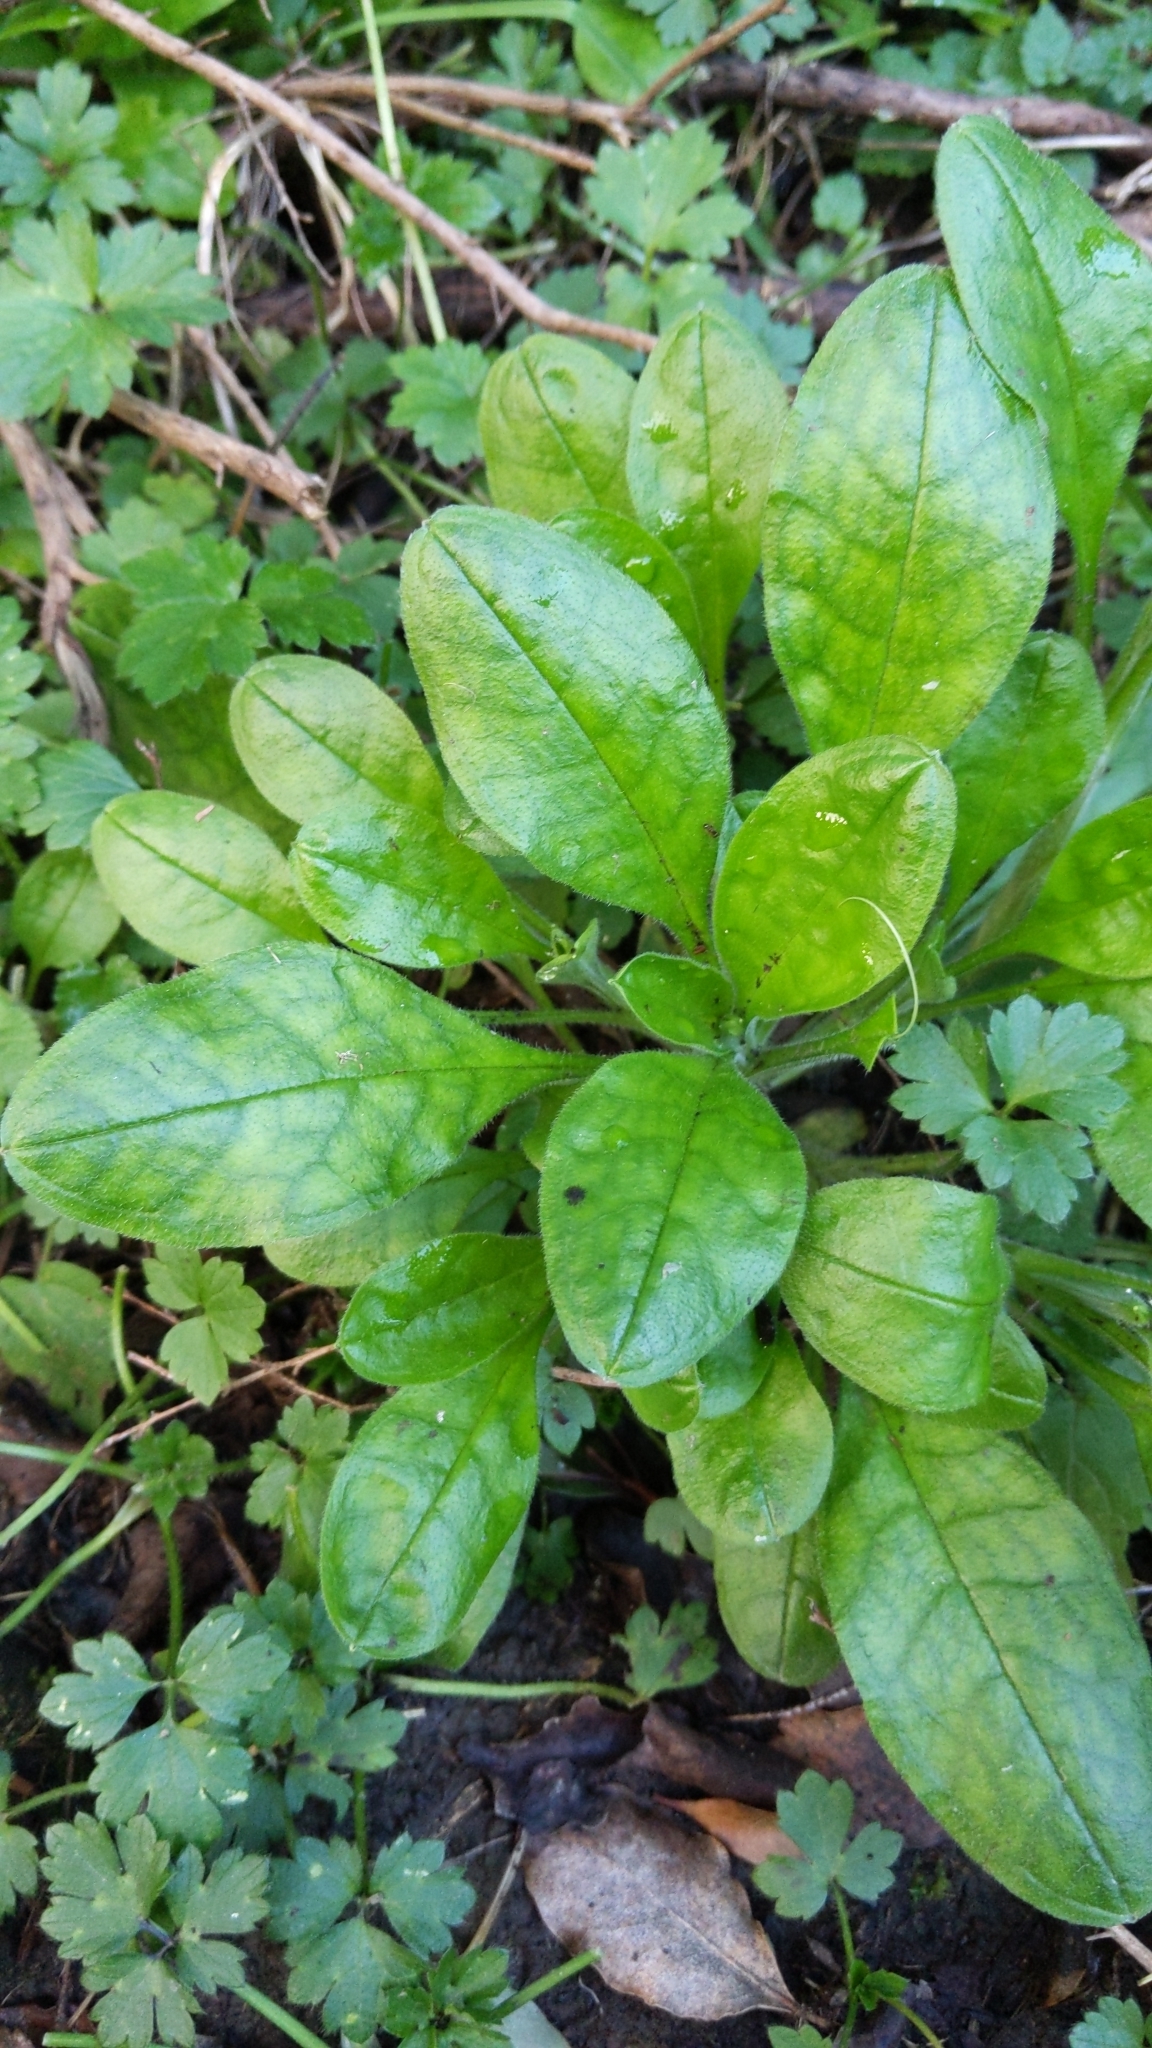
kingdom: Plantae
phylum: Tracheophyta
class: Magnoliopsida
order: Boraginales
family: Boraginaceae
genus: Myosotis
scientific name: Myosotis sylvatica
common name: Wood forget-me-not
